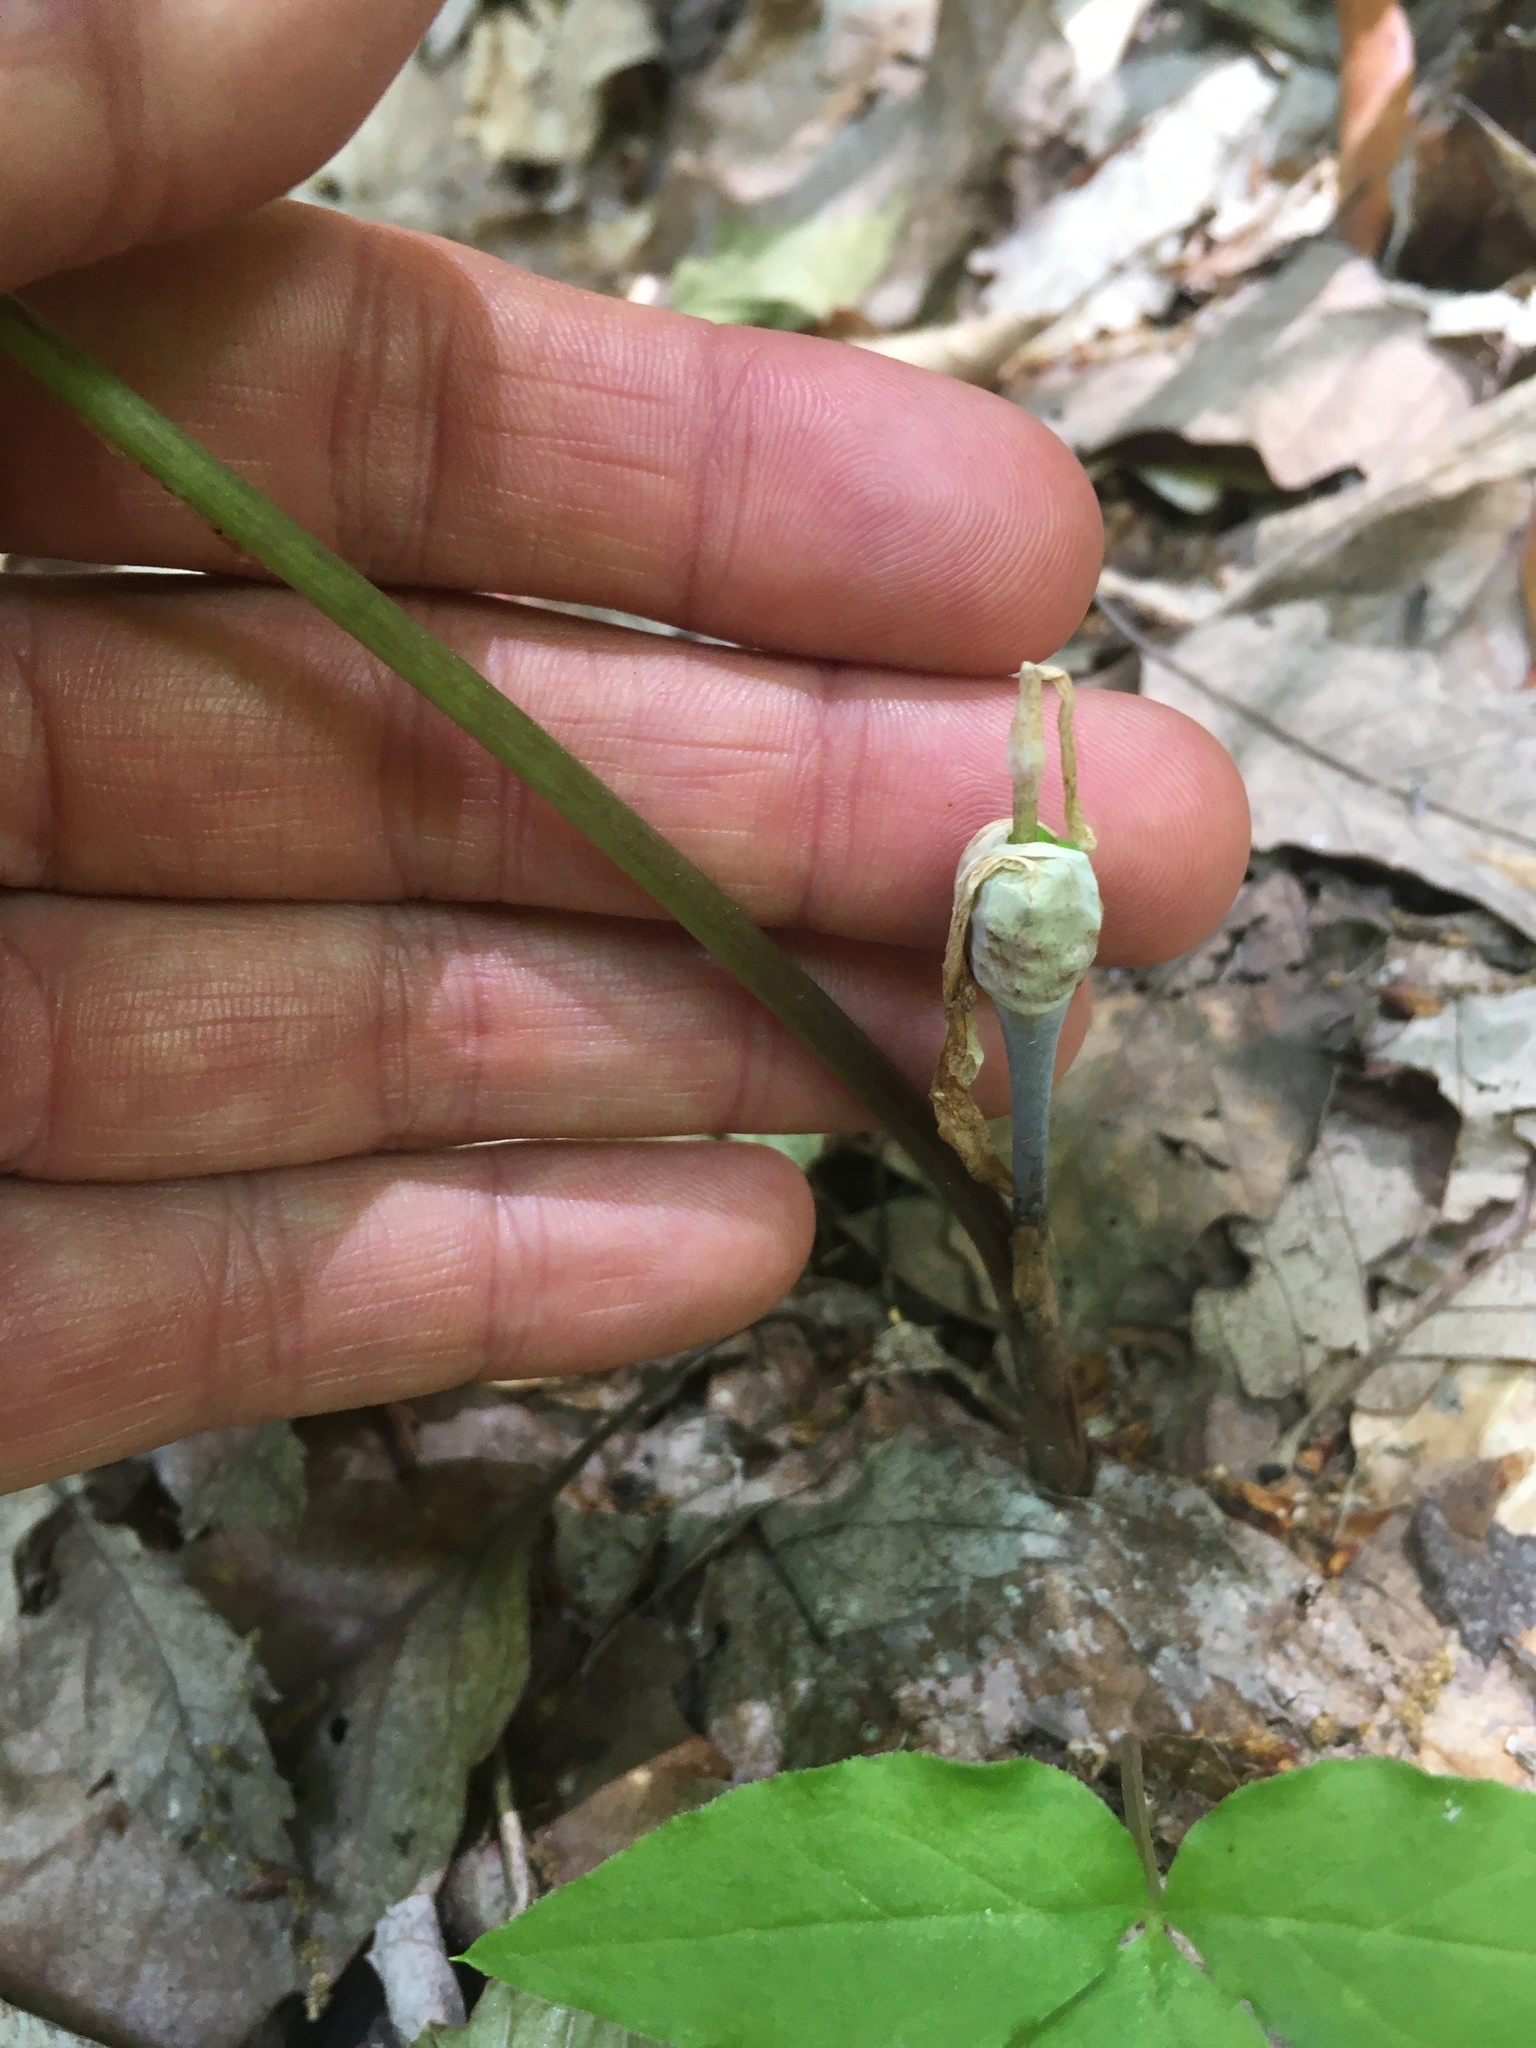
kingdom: Plantae
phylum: Tracheophyta
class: Liliopsida
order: Alismatales
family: Araceae
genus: Arisaema
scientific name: Arisaema quinatum
